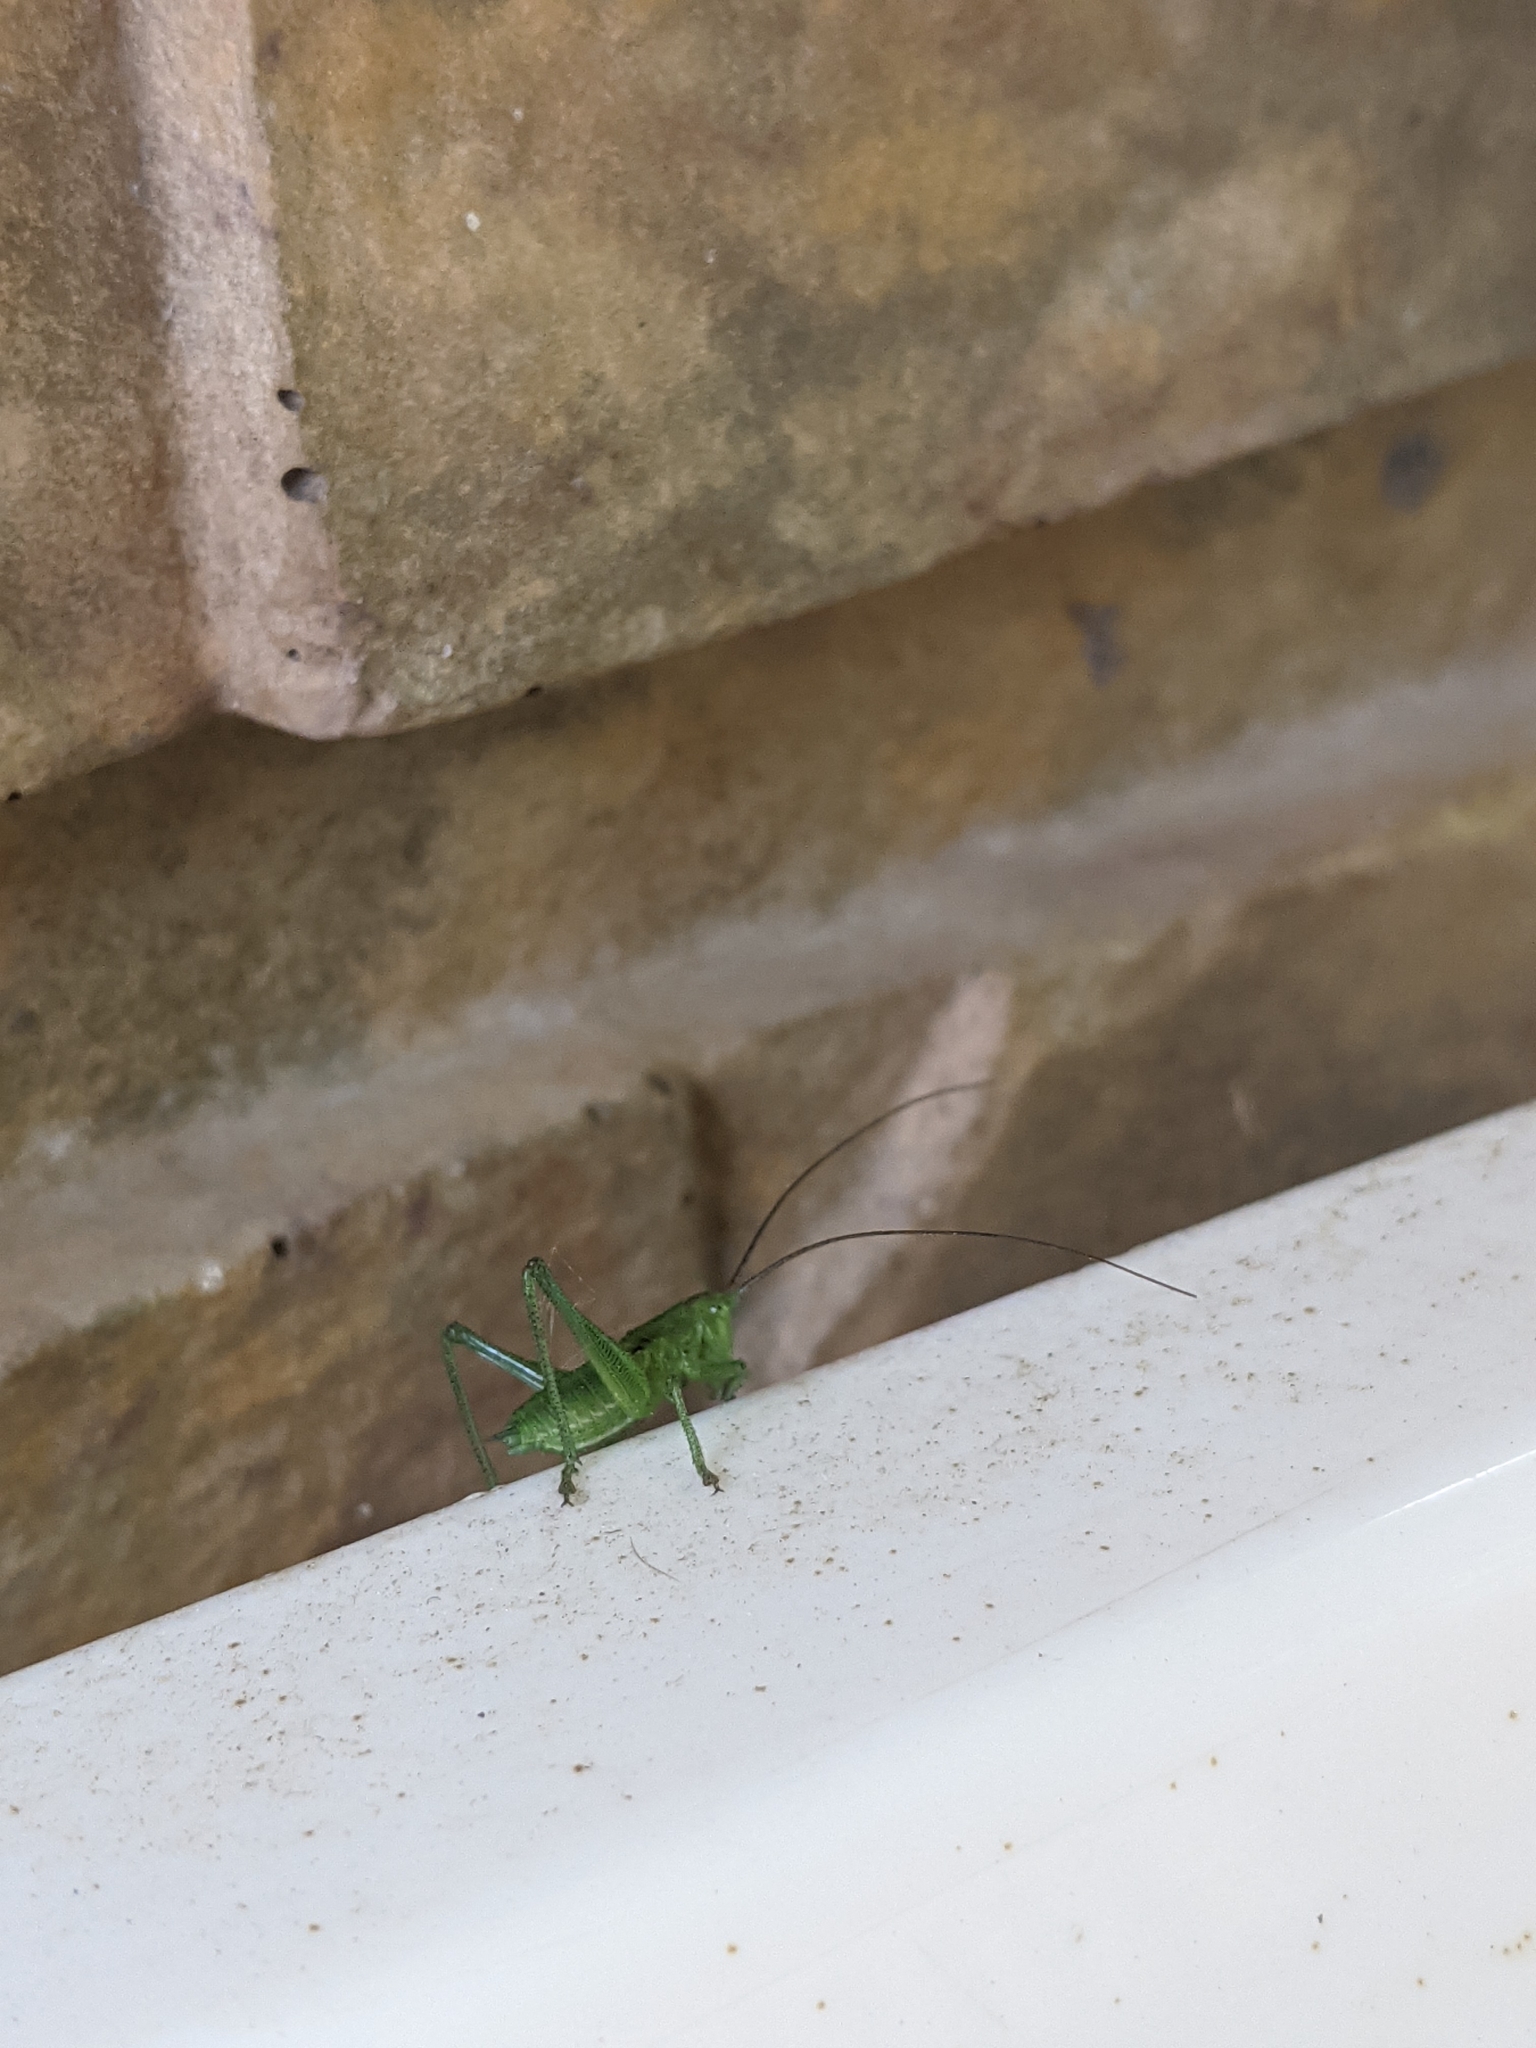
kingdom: Animalia
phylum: Arthropoda
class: Insecta
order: Orthoptera
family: Tettigoniidae
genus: Tettigonia
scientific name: Tettigonia
